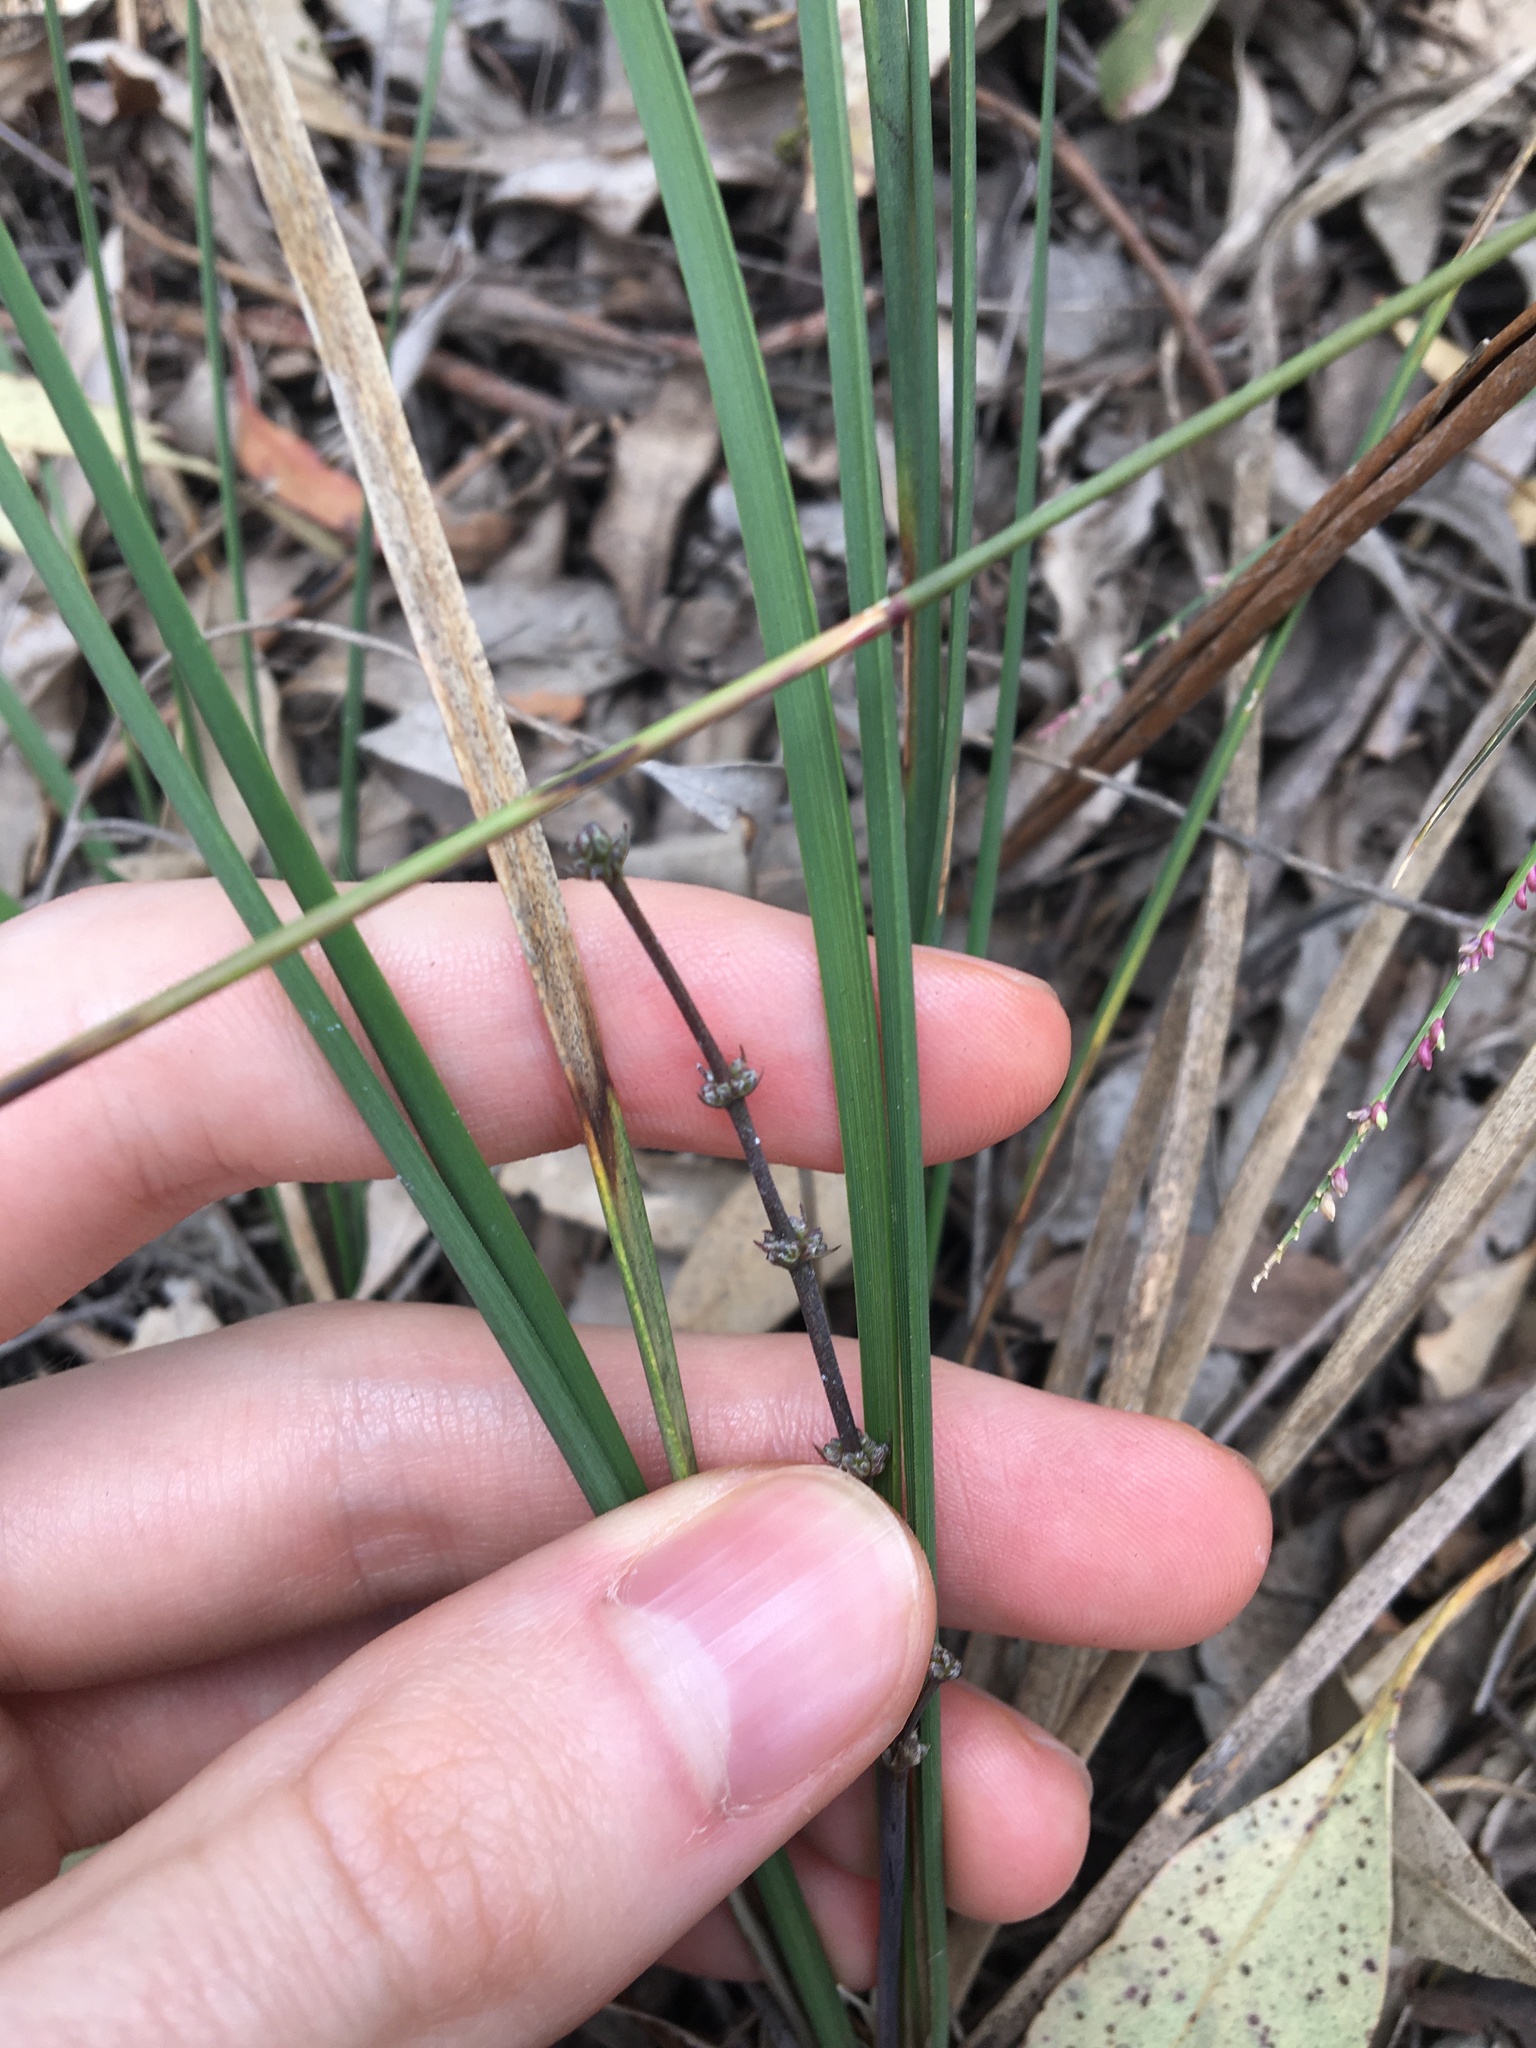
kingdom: Plantae
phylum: Tracheophyta
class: Liliopsida
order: Asparagales
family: Asparagaceae
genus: Lomandra
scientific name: Lomandra multiflora
